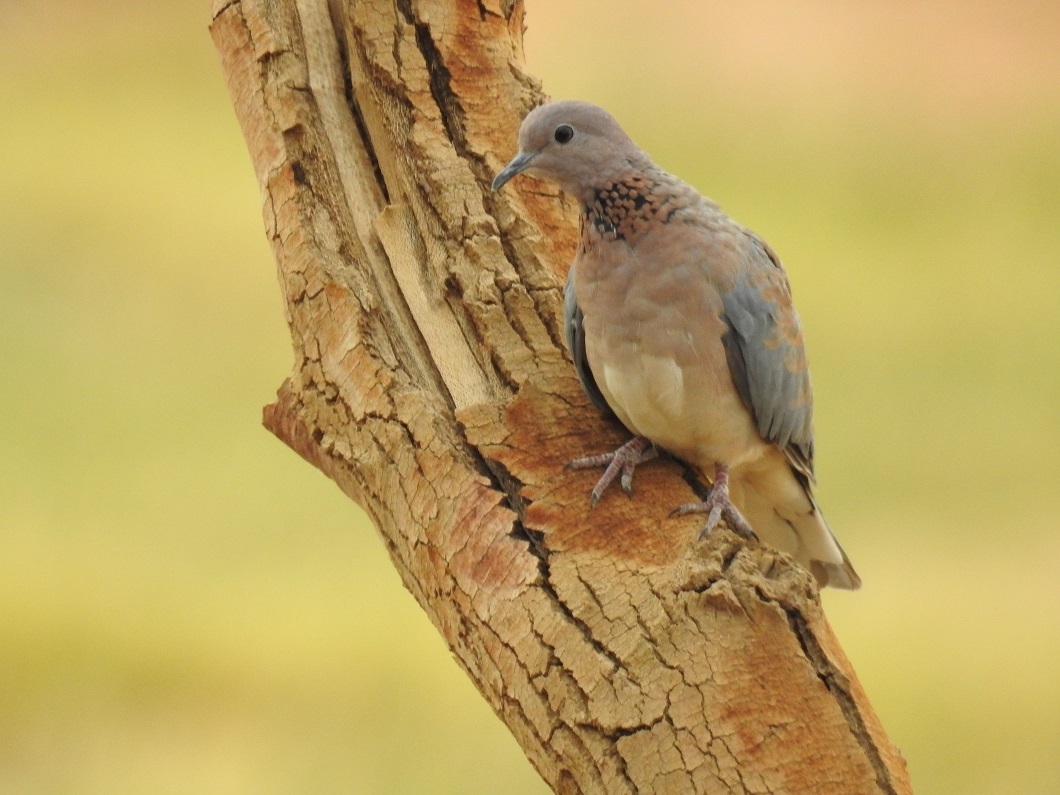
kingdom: Animalia
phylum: Chordata
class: Aves
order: Columbiformes
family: Columbidae
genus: Spilopelia
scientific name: Spilopelia senegalensis
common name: Laughing dove
